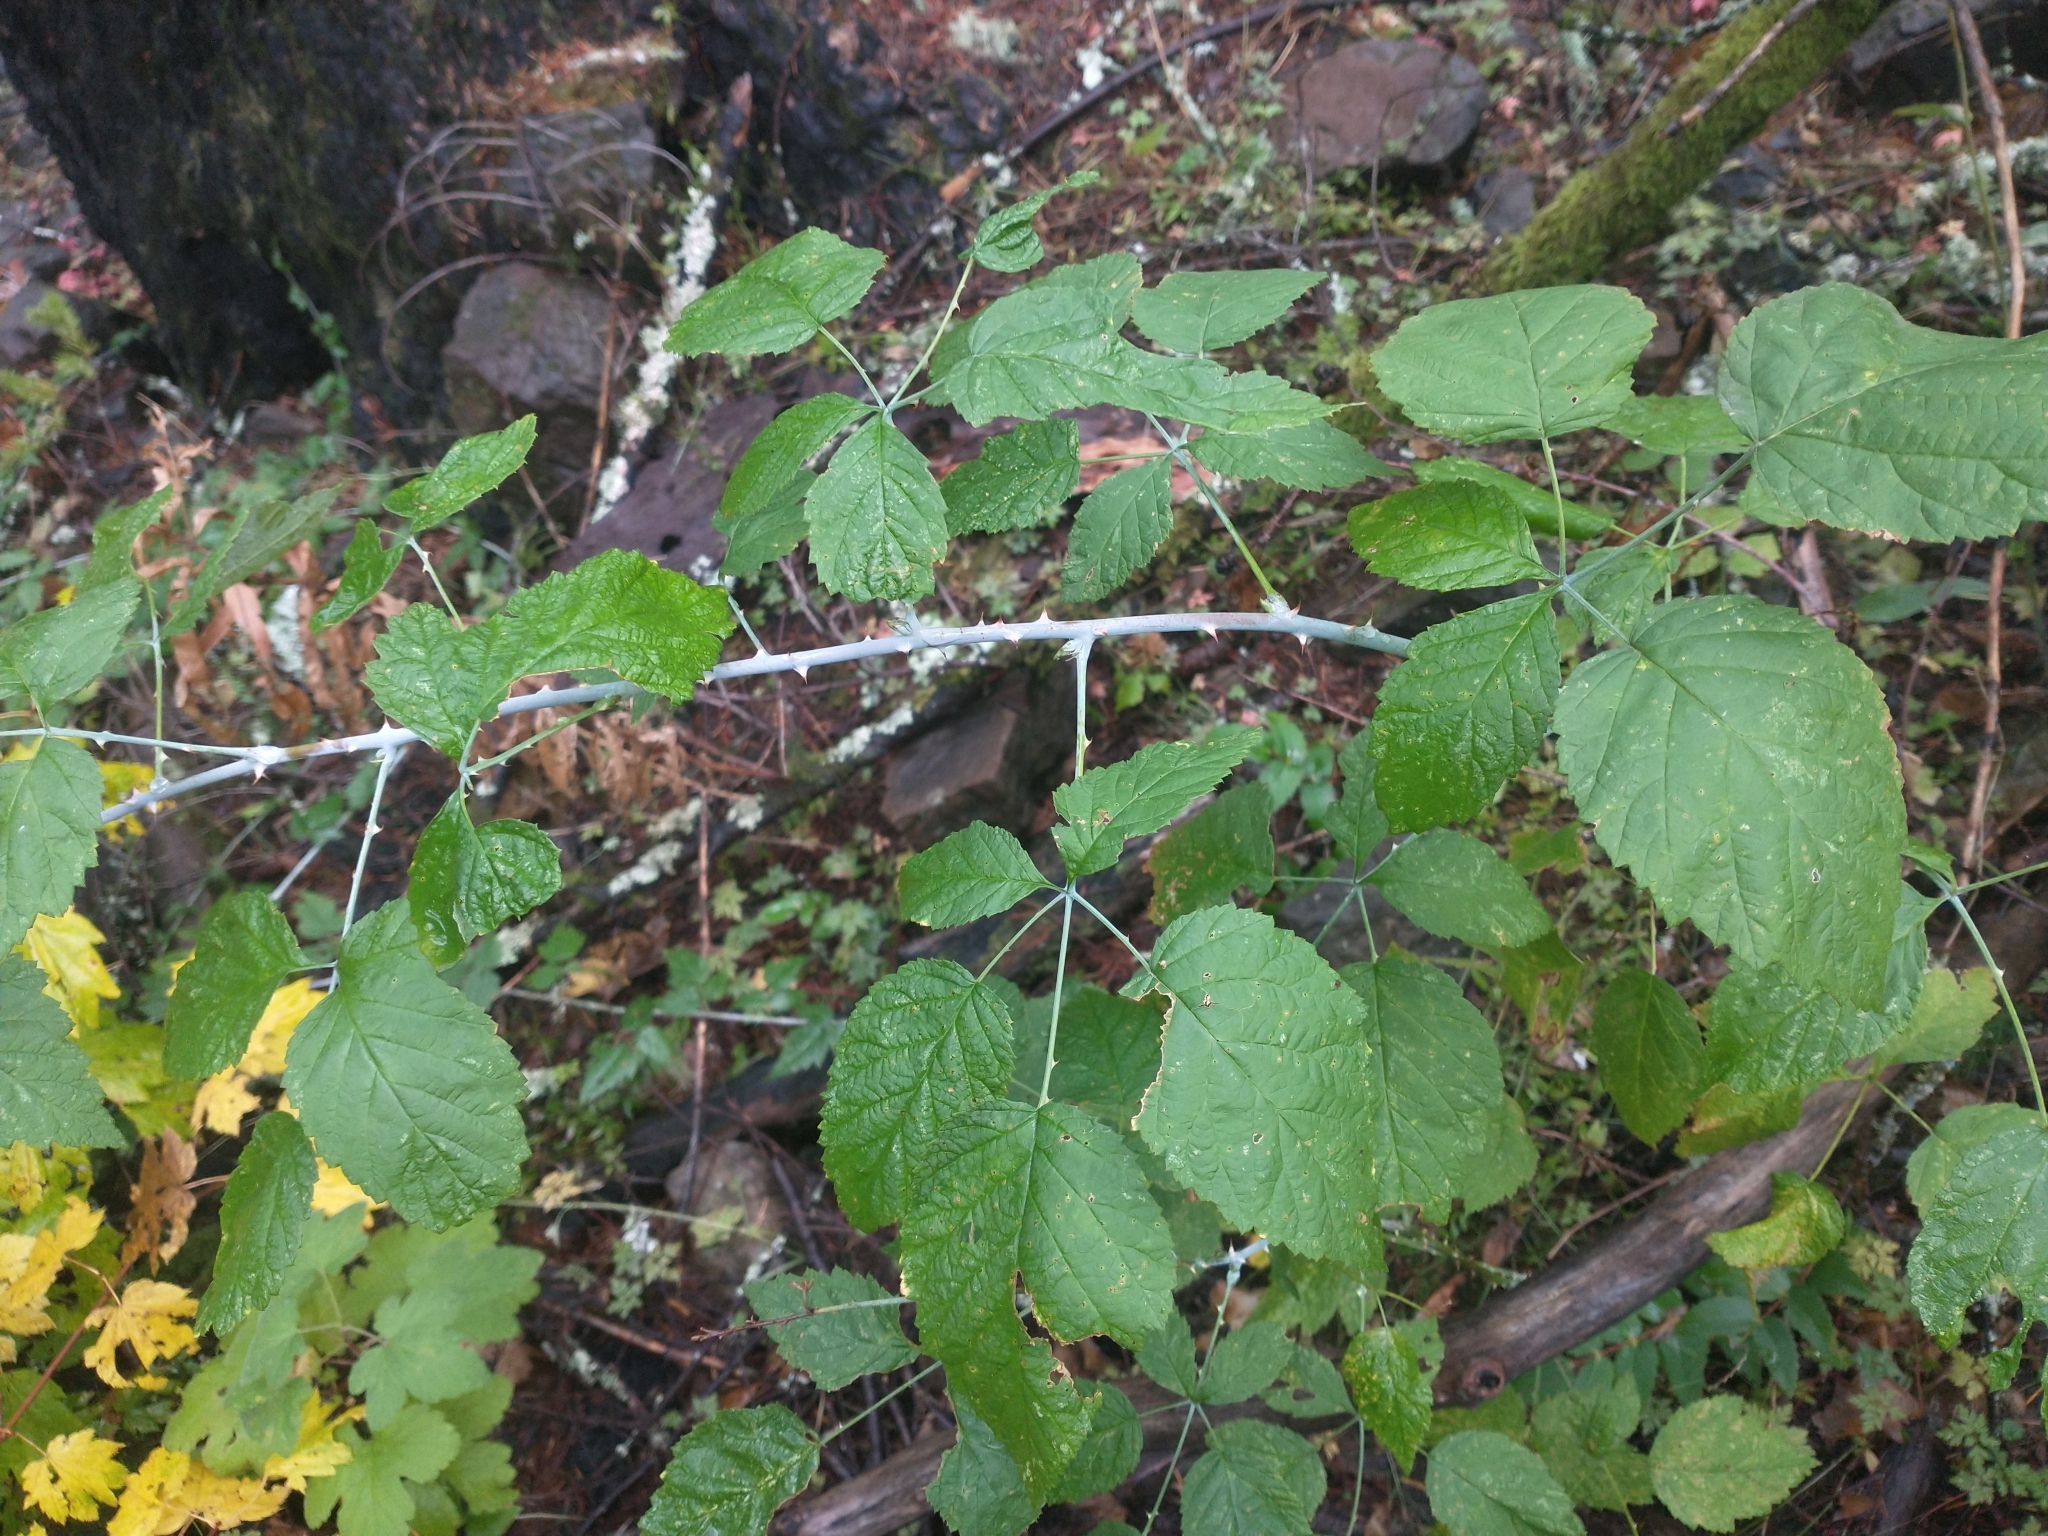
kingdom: Plantae
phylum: Tracheophyta
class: Magnoliopsida
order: Rosales
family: Rosaceae
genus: Rubus
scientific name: Rubus leucodermis
